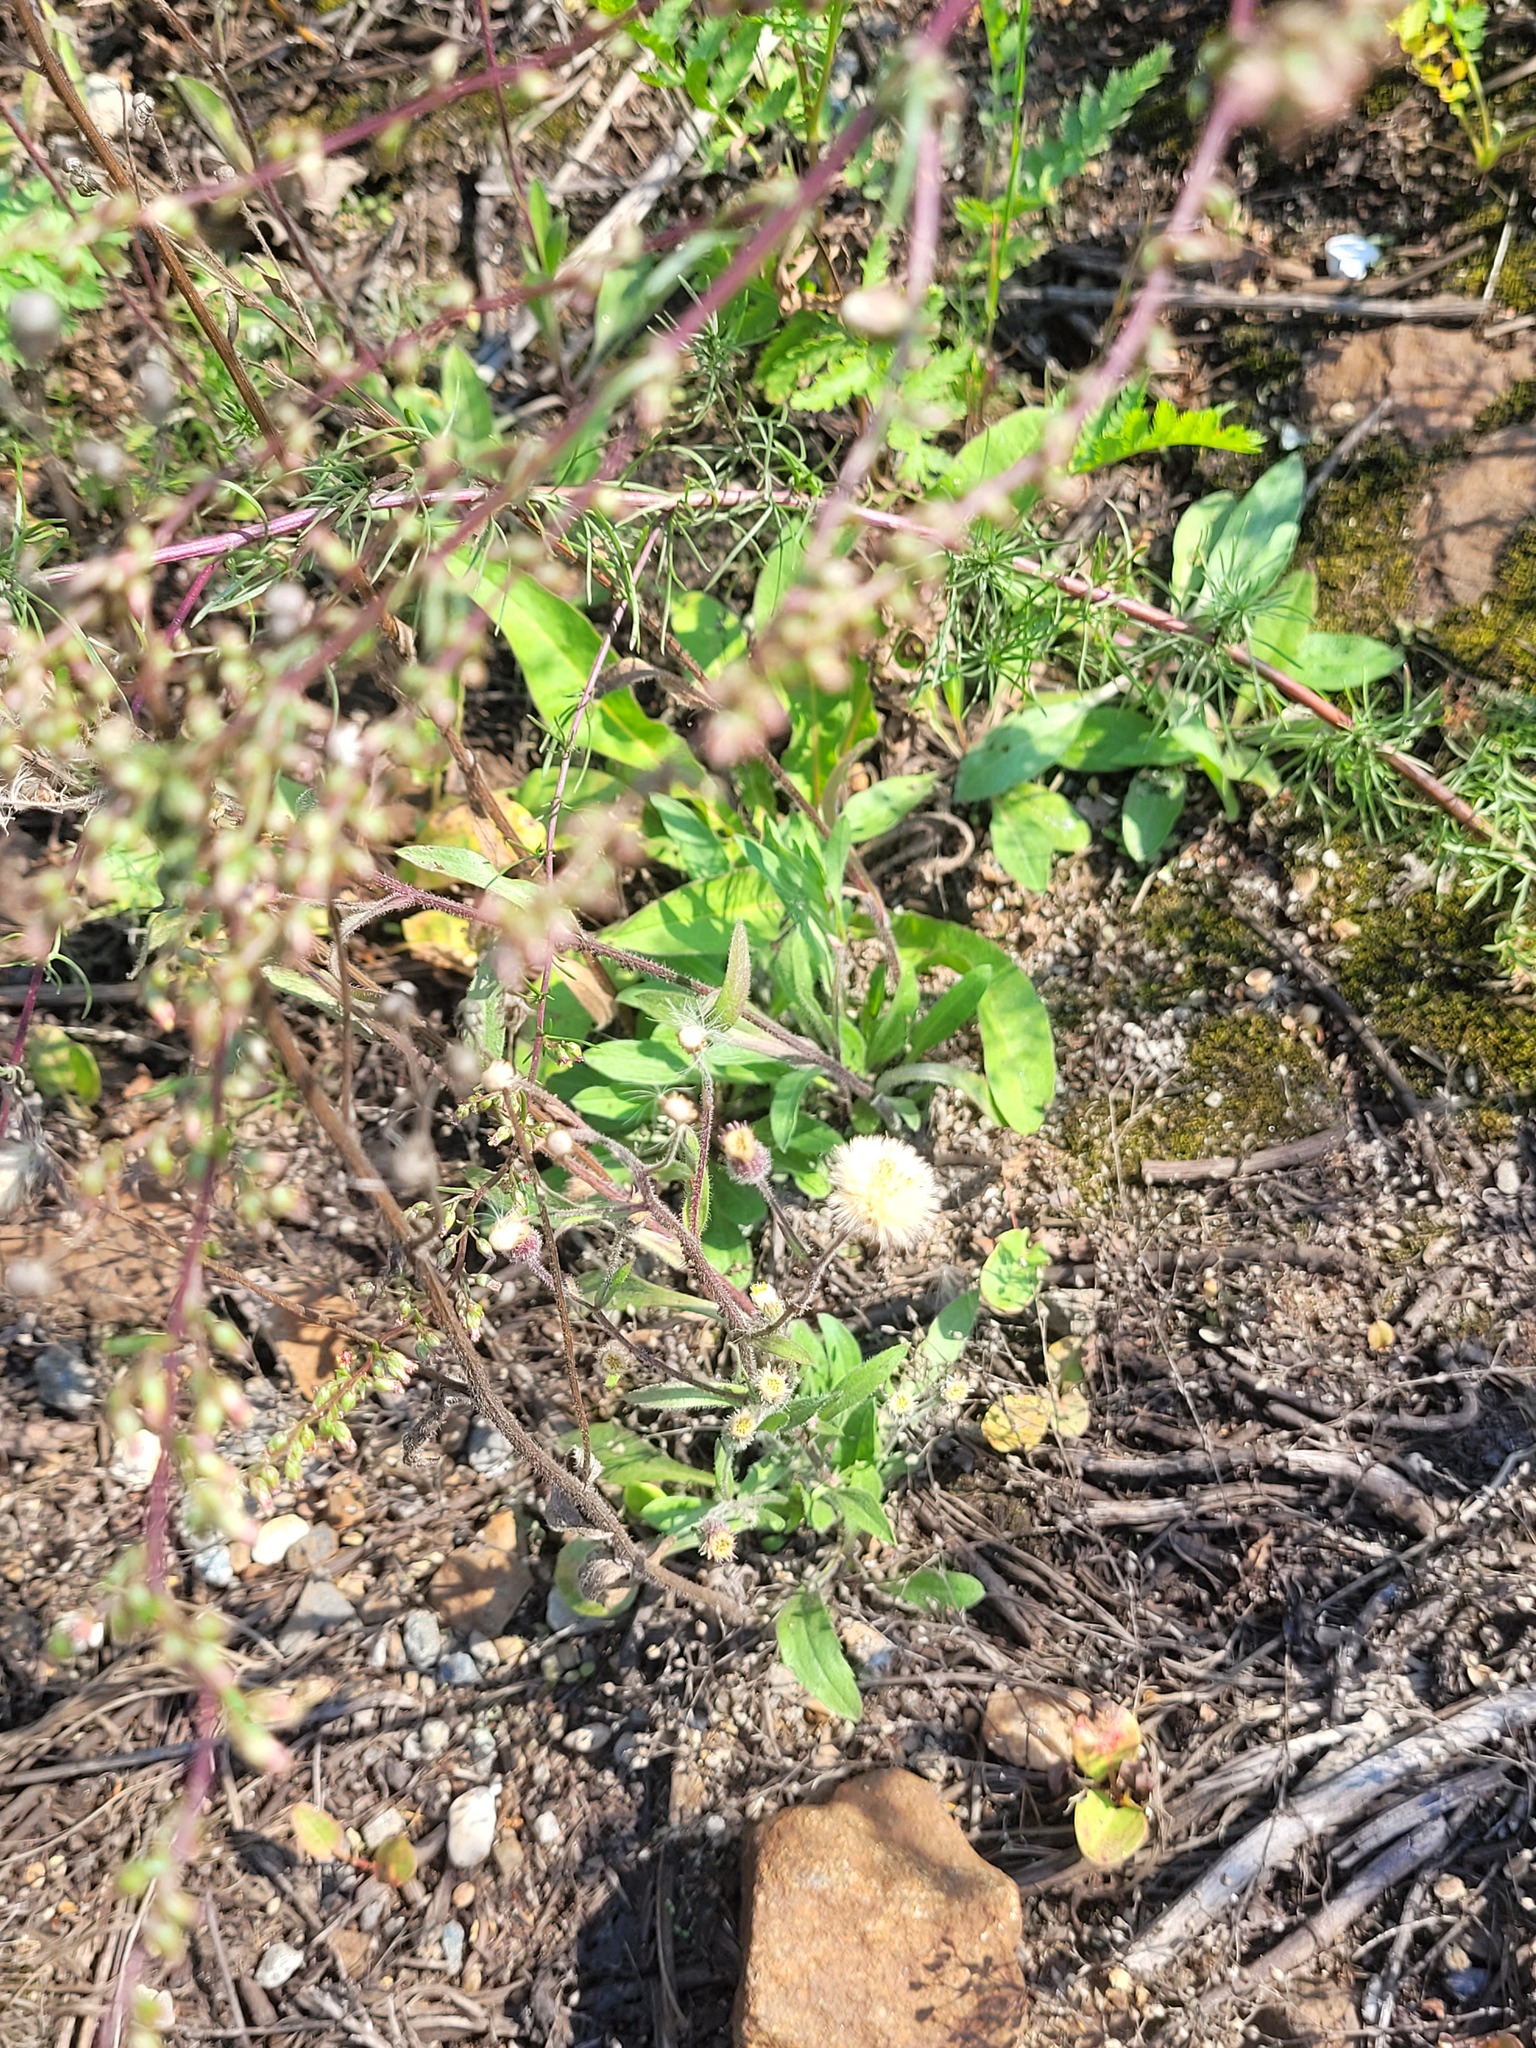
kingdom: Plantae
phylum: Tracheophyta
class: Magnoliopsida
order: Asterales
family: Asteraceae
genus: Erigeron
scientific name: Erigeron acris
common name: Blue fleabane
